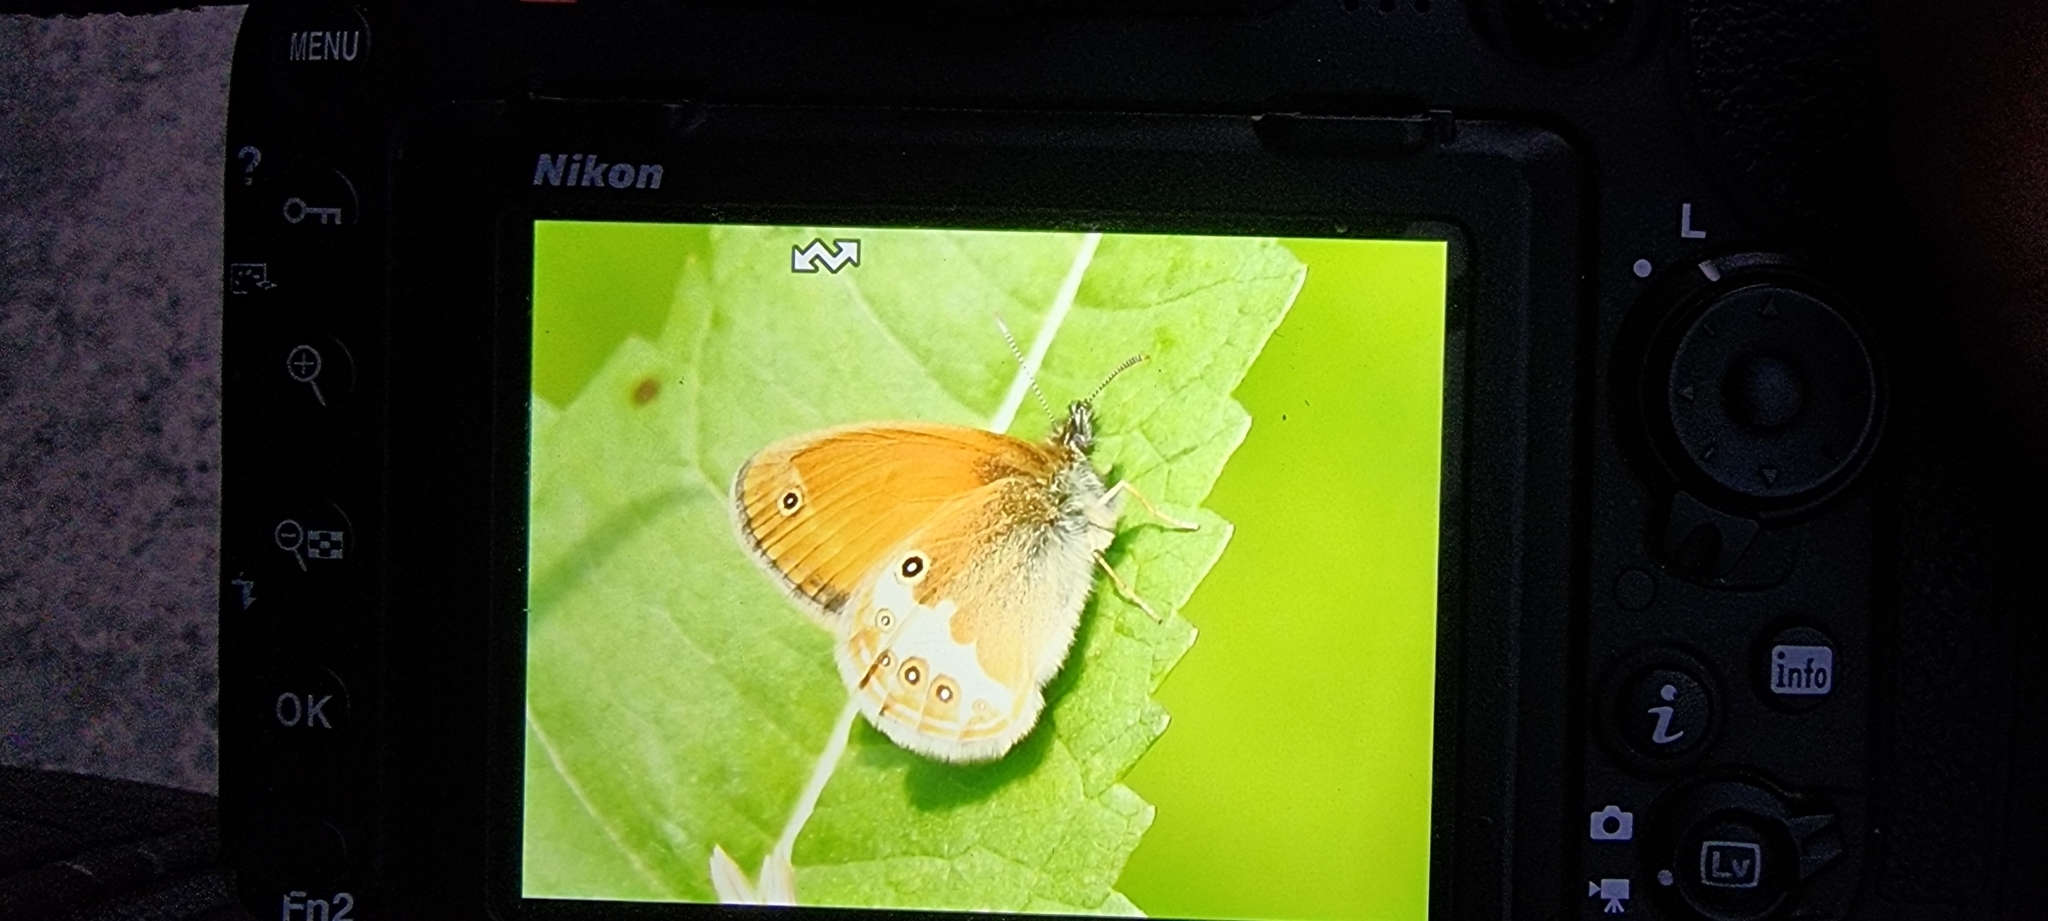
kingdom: Animalia
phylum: Arthropoda
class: Insecta
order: Lepidoptera
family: Nymphalidae
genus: Coenonympha
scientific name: Coenonympha arcania
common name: Pearly heath
